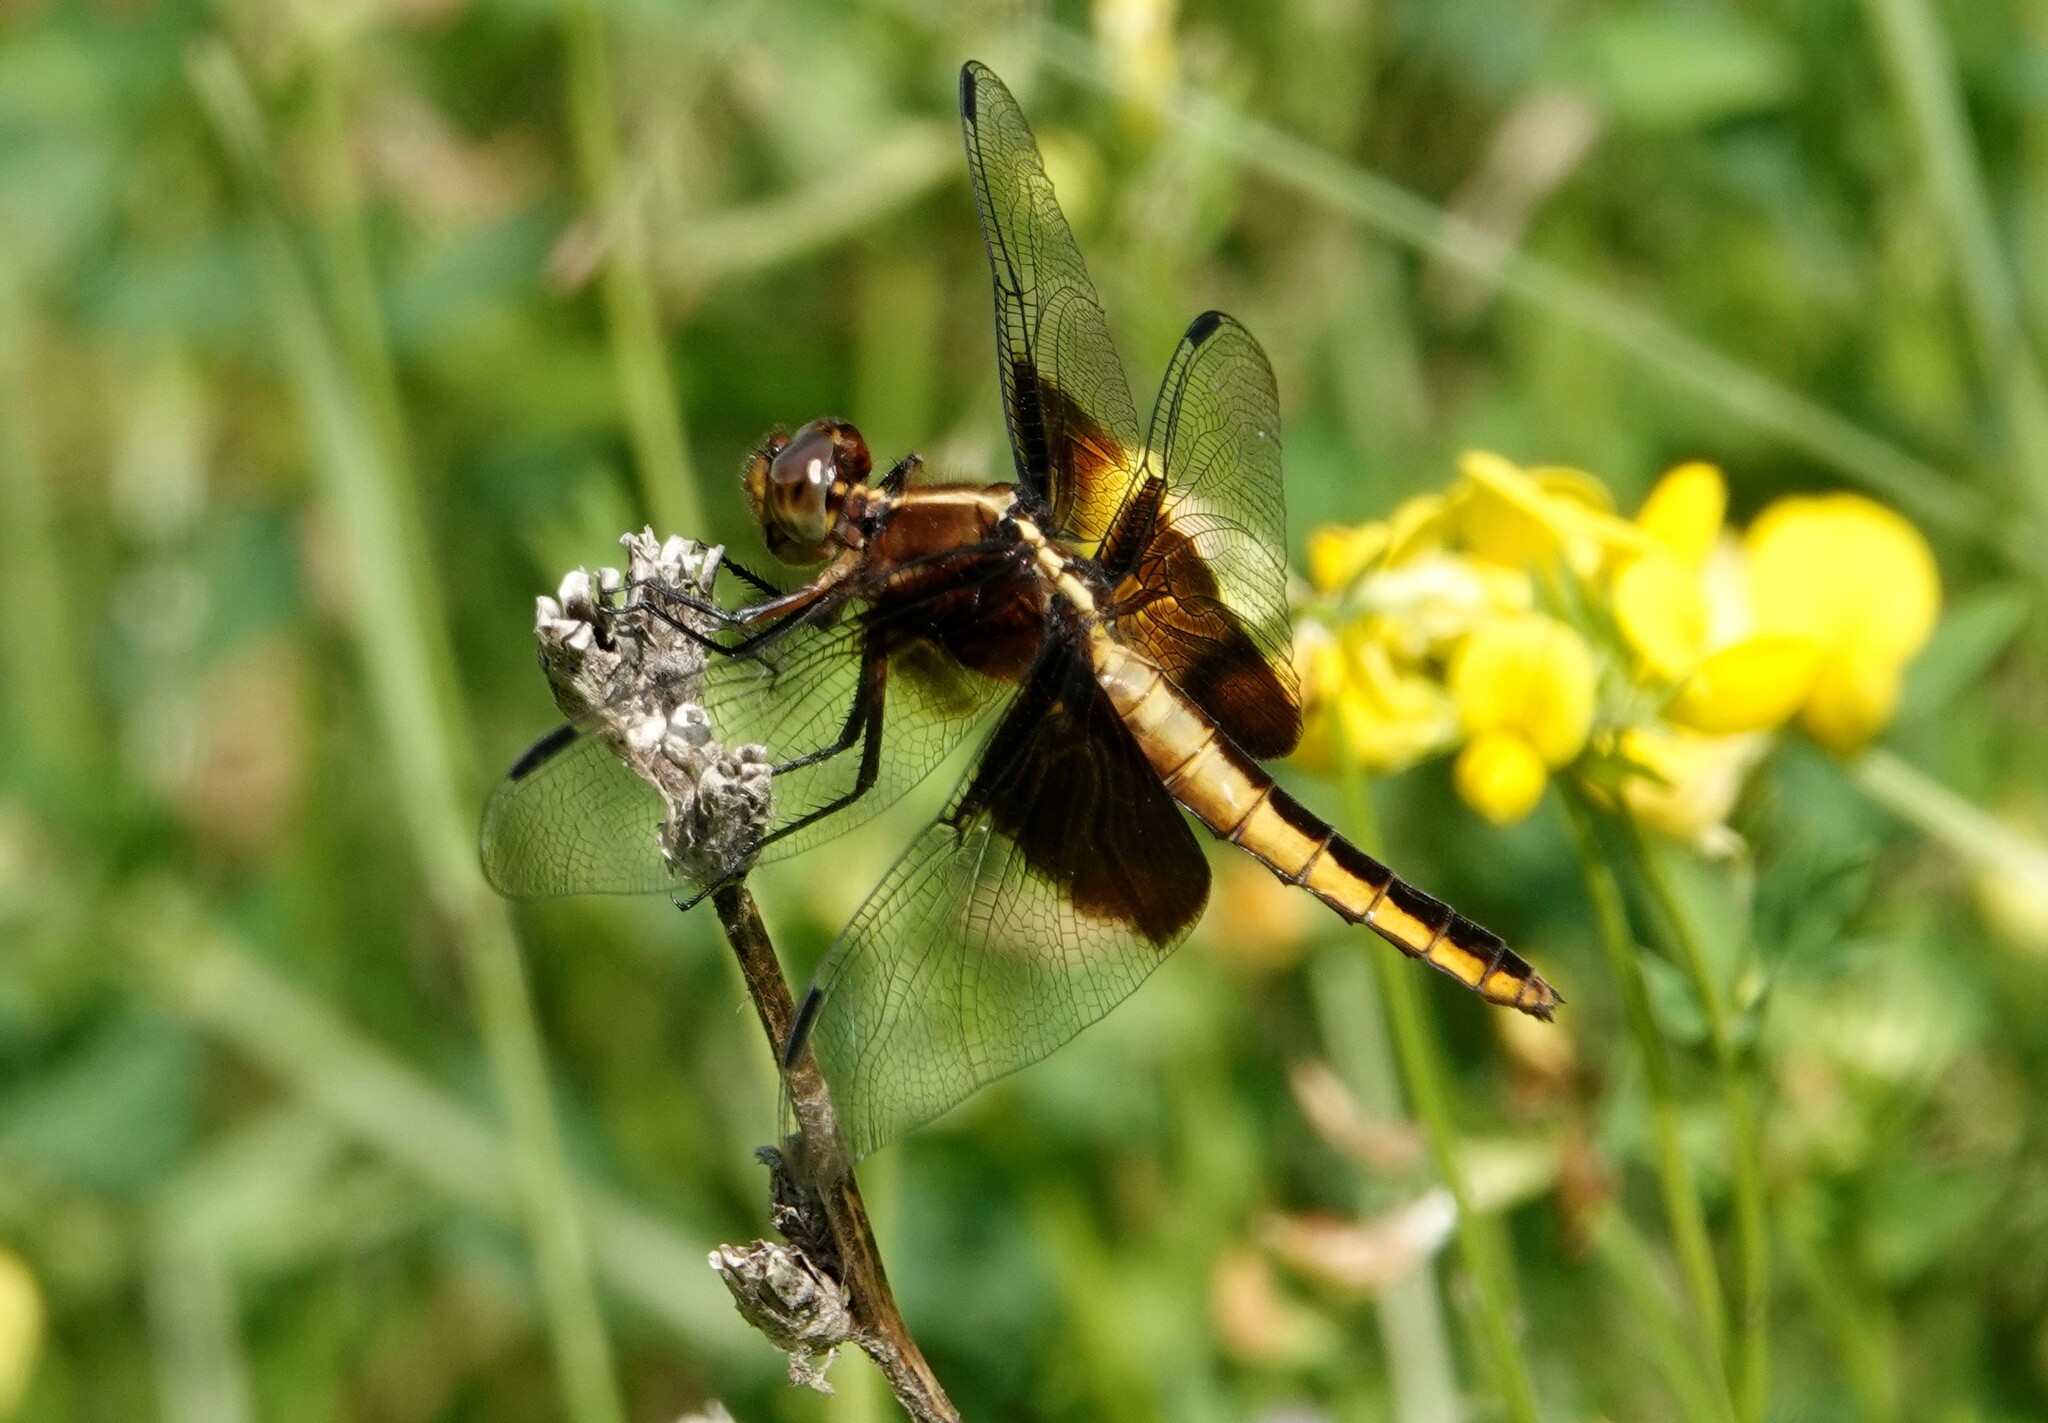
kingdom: Animalia
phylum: Arthropoda
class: Insecta
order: Odonata
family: Libellulidae
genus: Libellula
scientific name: Libellula luctuosa
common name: Widow skimmer
